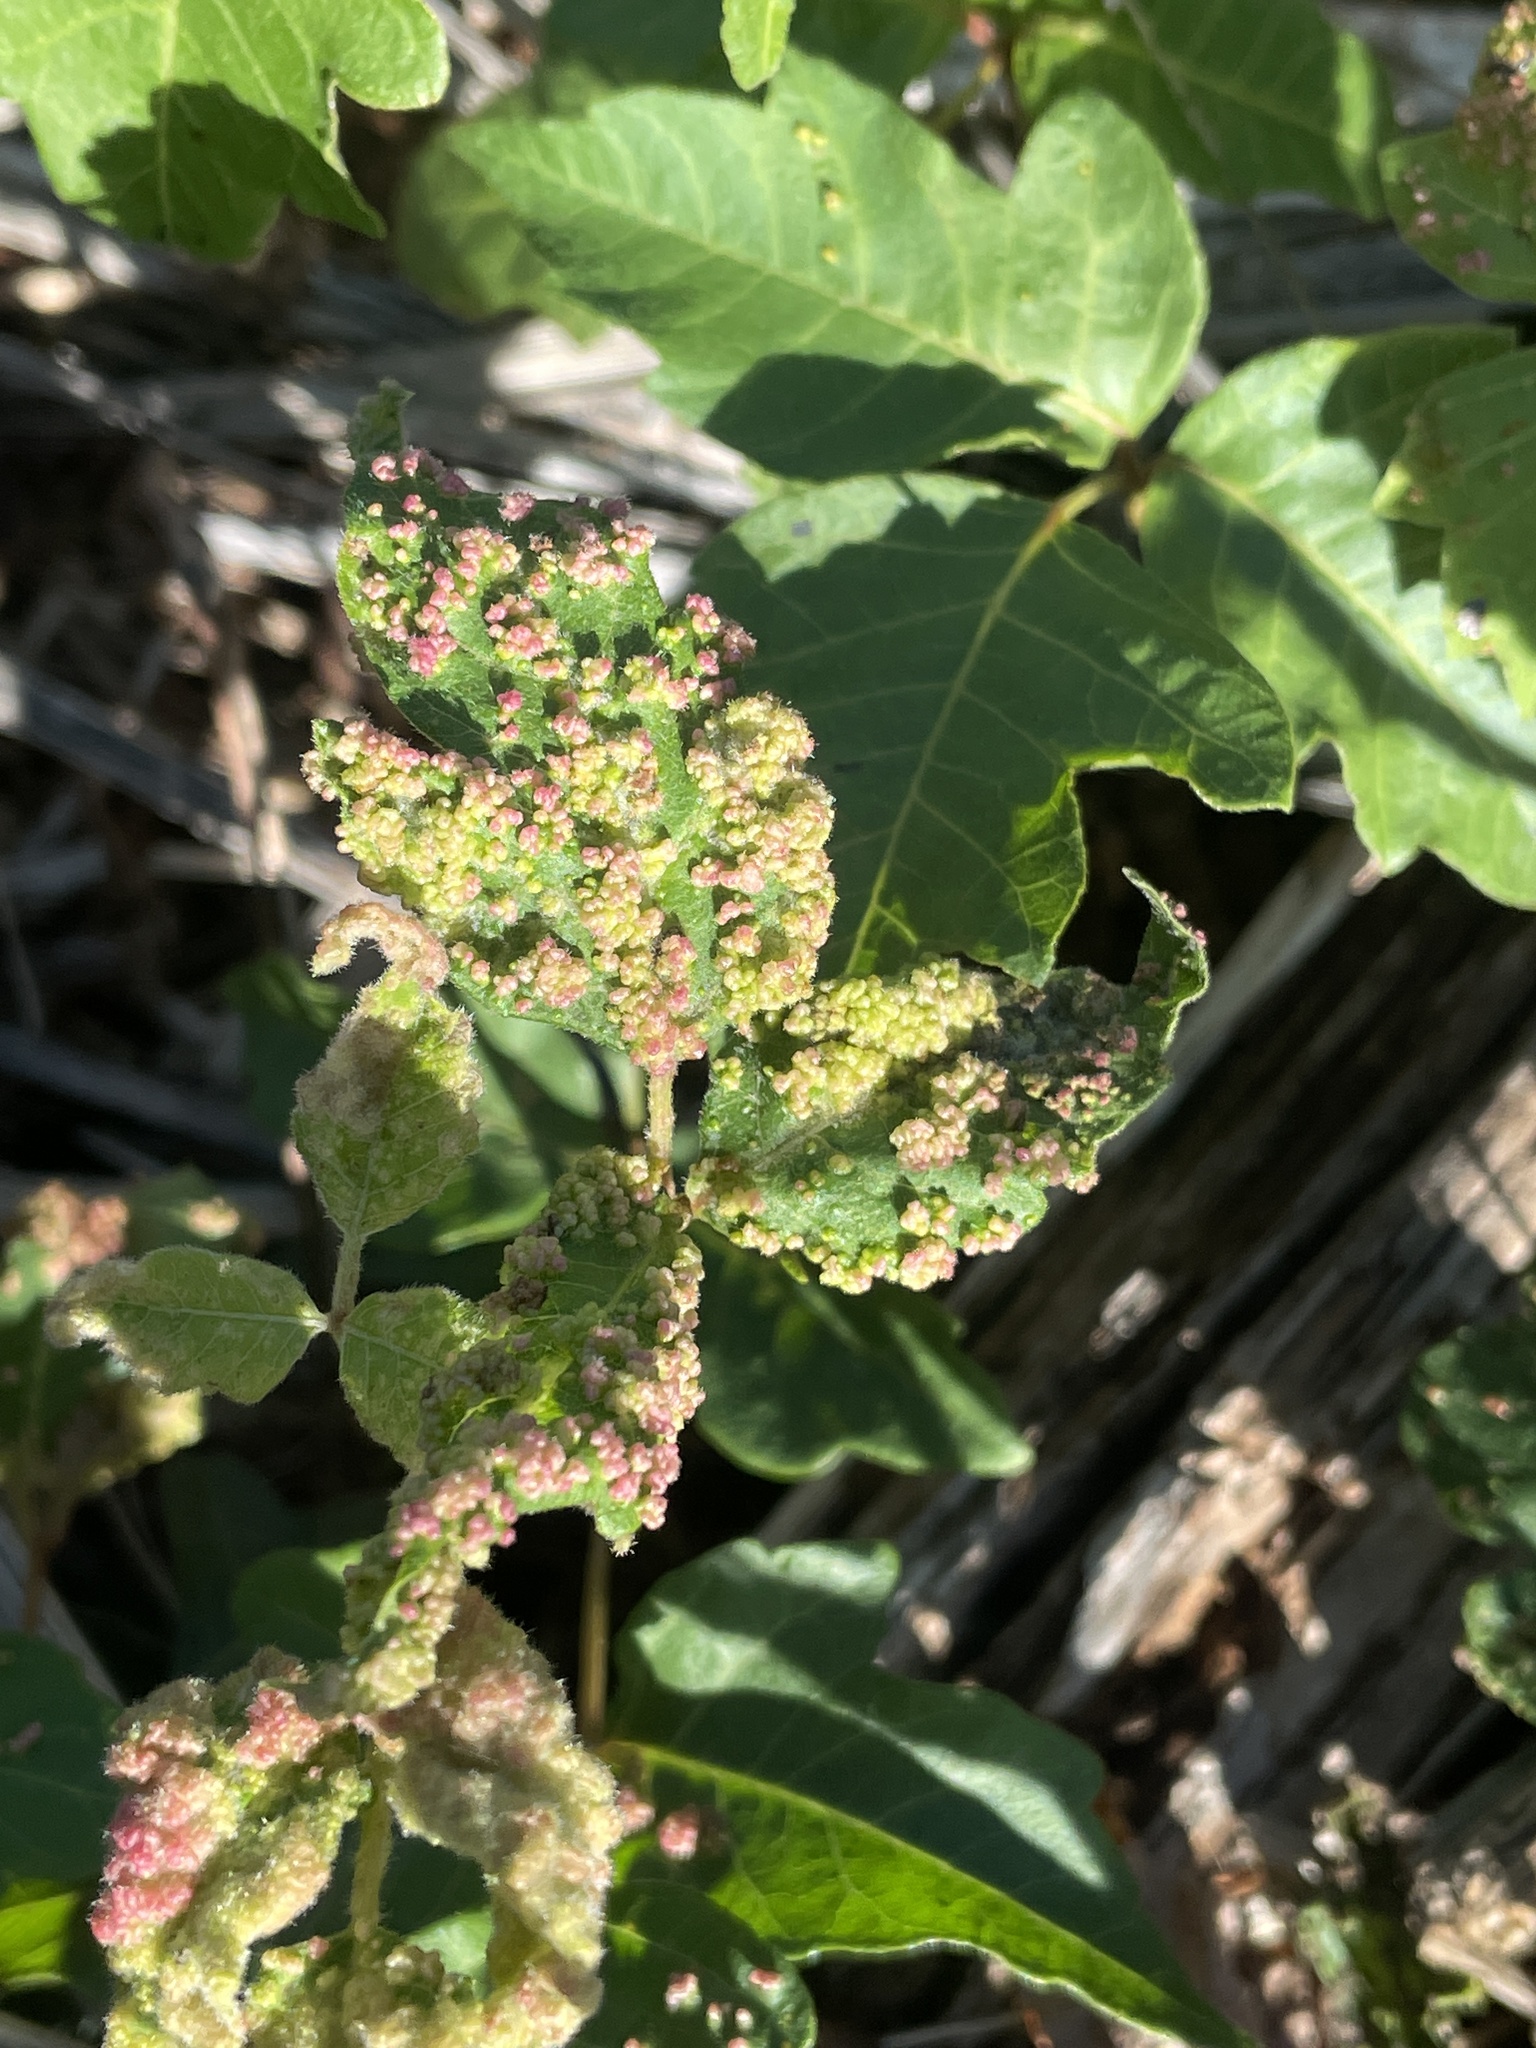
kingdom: Animalia
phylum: Arthropoda
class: Arachnida
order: Trombidiformes
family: Eriophyidae
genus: Aculops
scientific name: Aculops
